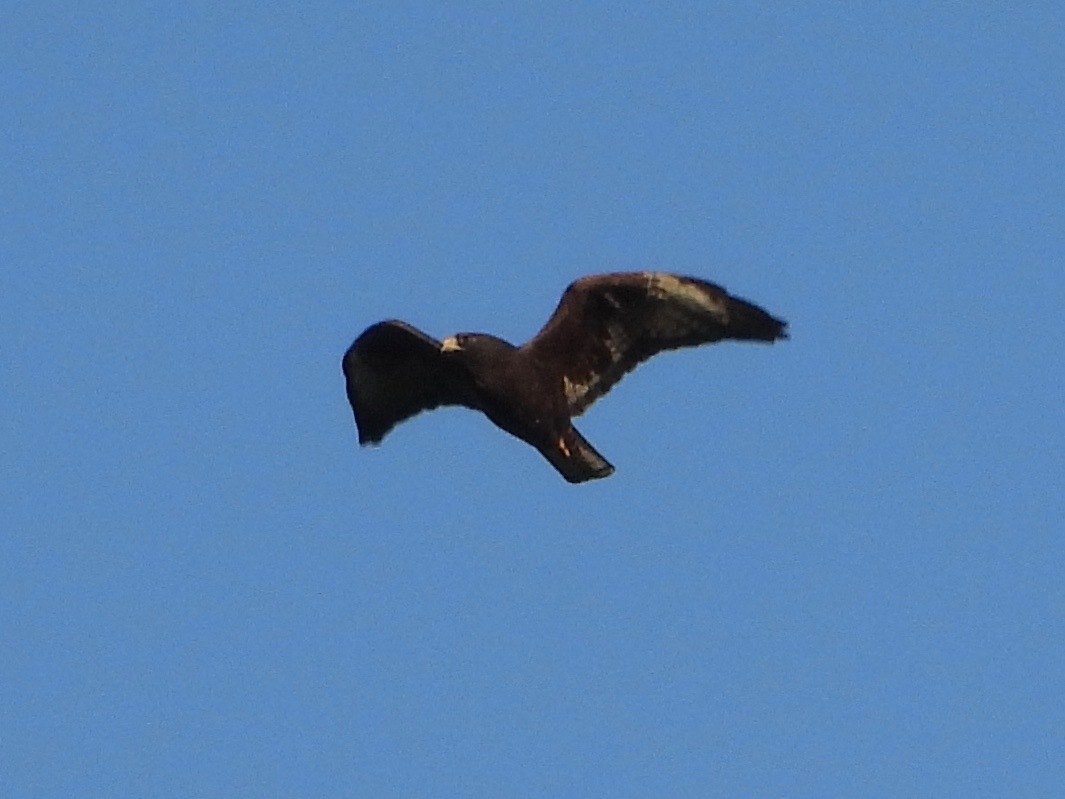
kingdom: Animalia
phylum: Chordata
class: Aves
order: Accipitriformes
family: Accipitridae
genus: Buteo
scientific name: Buteo brachyurus
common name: Short-tailed hawk
